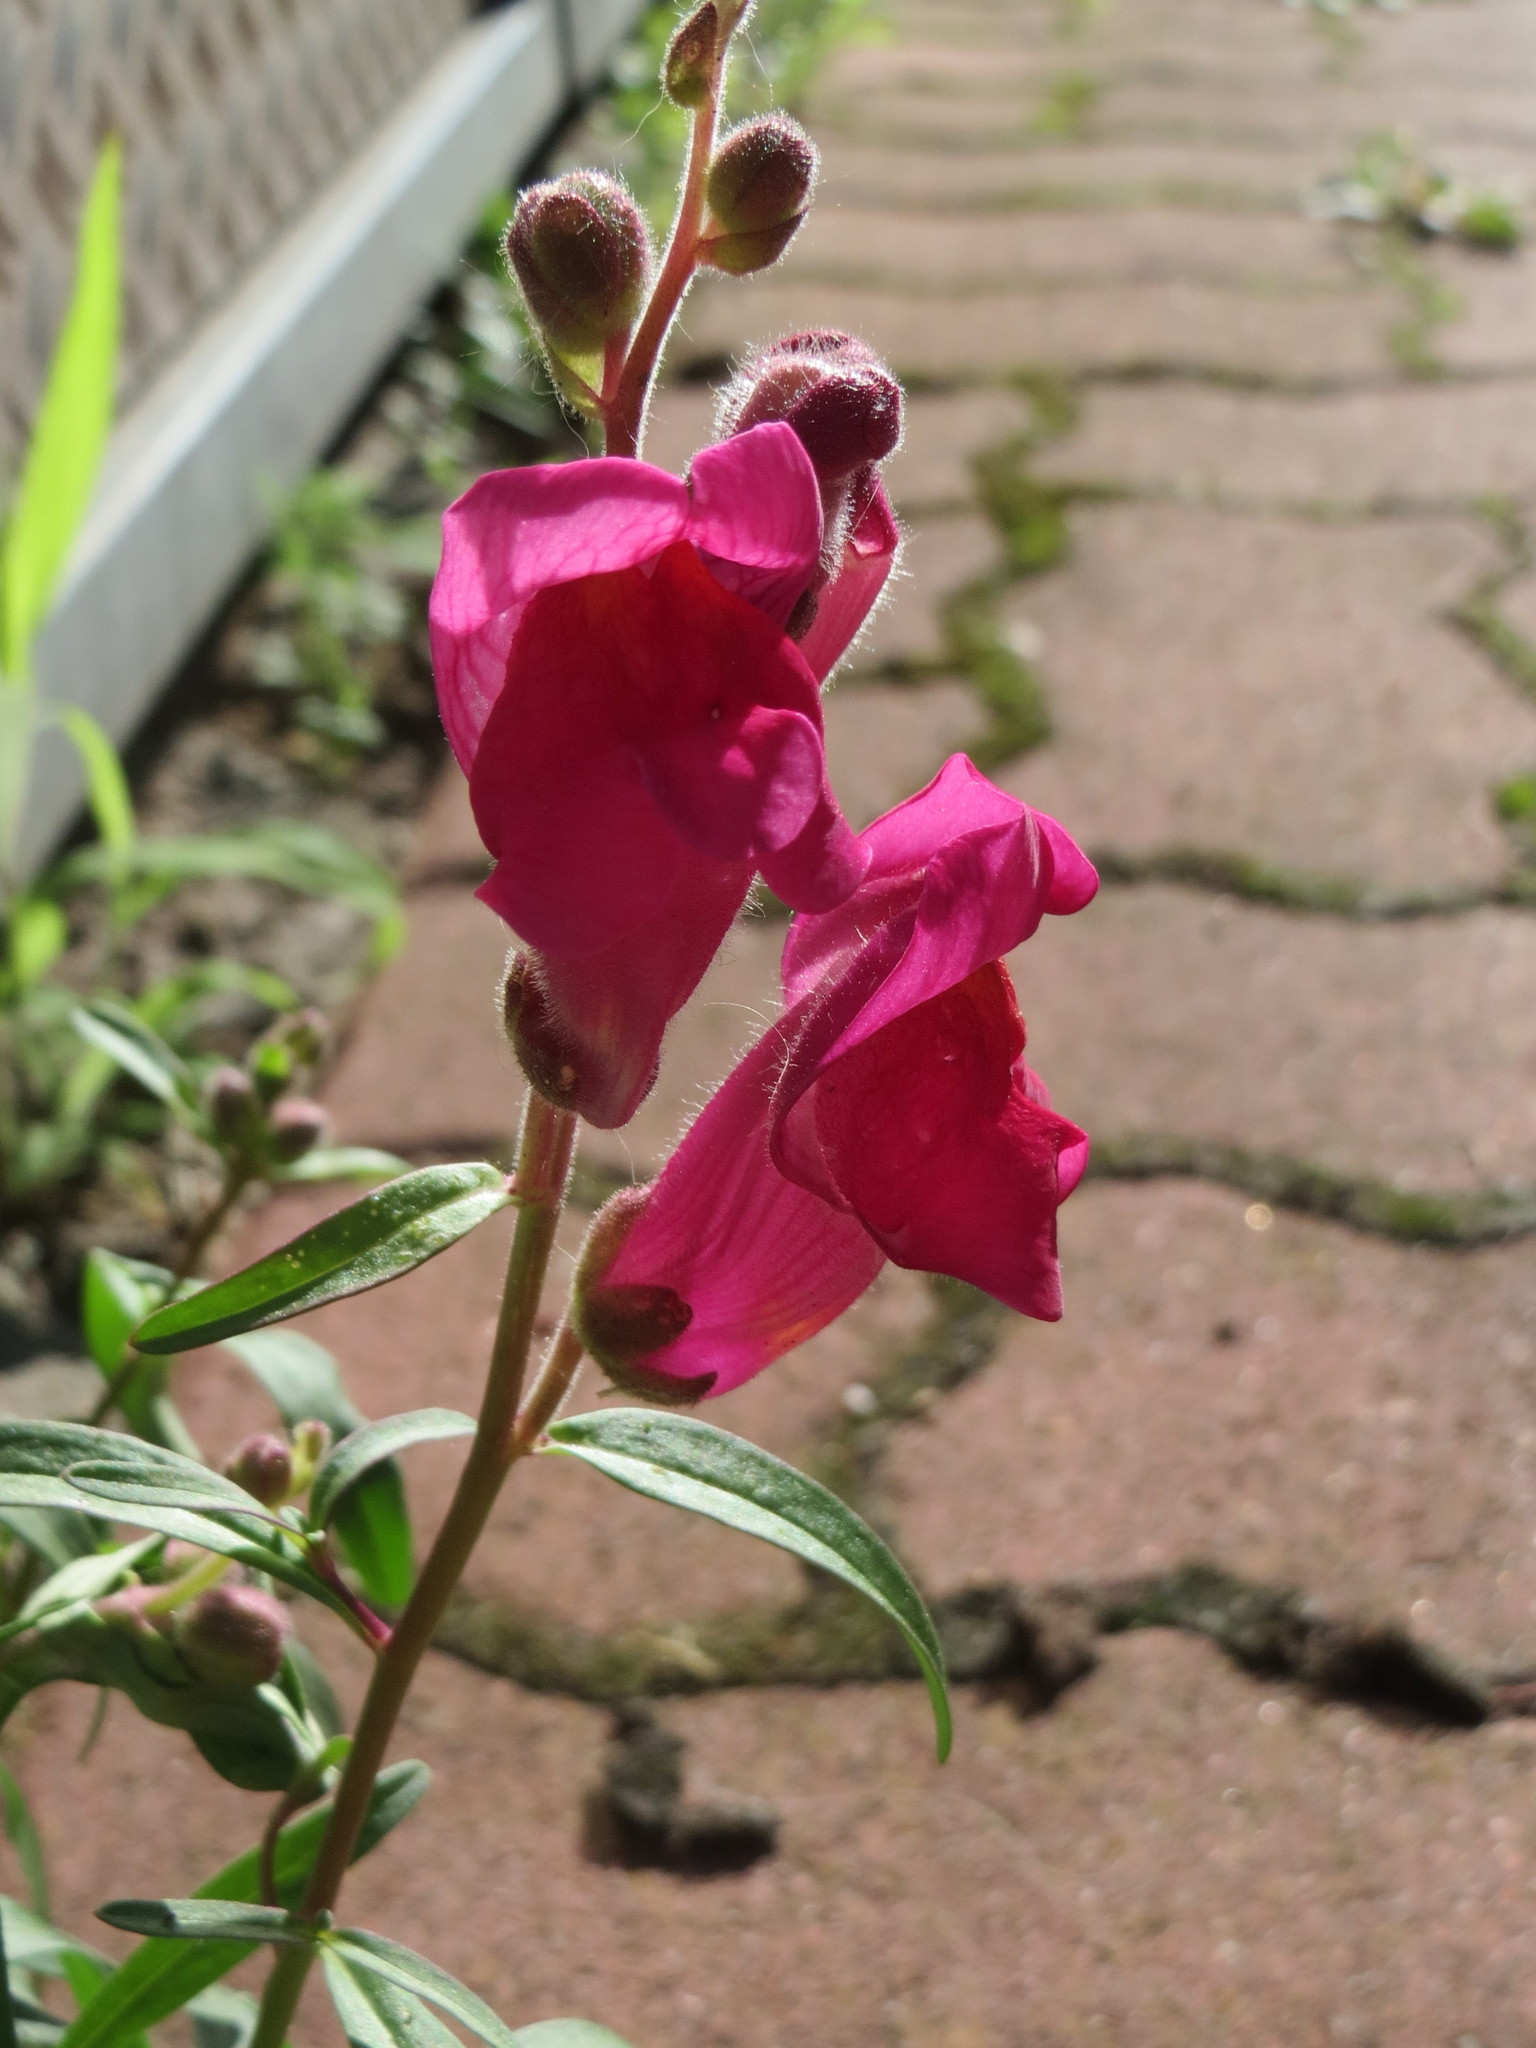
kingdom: Plantae
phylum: Tracheophyta
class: Magnoliopsida
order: Lamiales
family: Plantaginaceae
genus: Antirrhinum
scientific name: Antirrhinum majus
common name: Snapdragon
